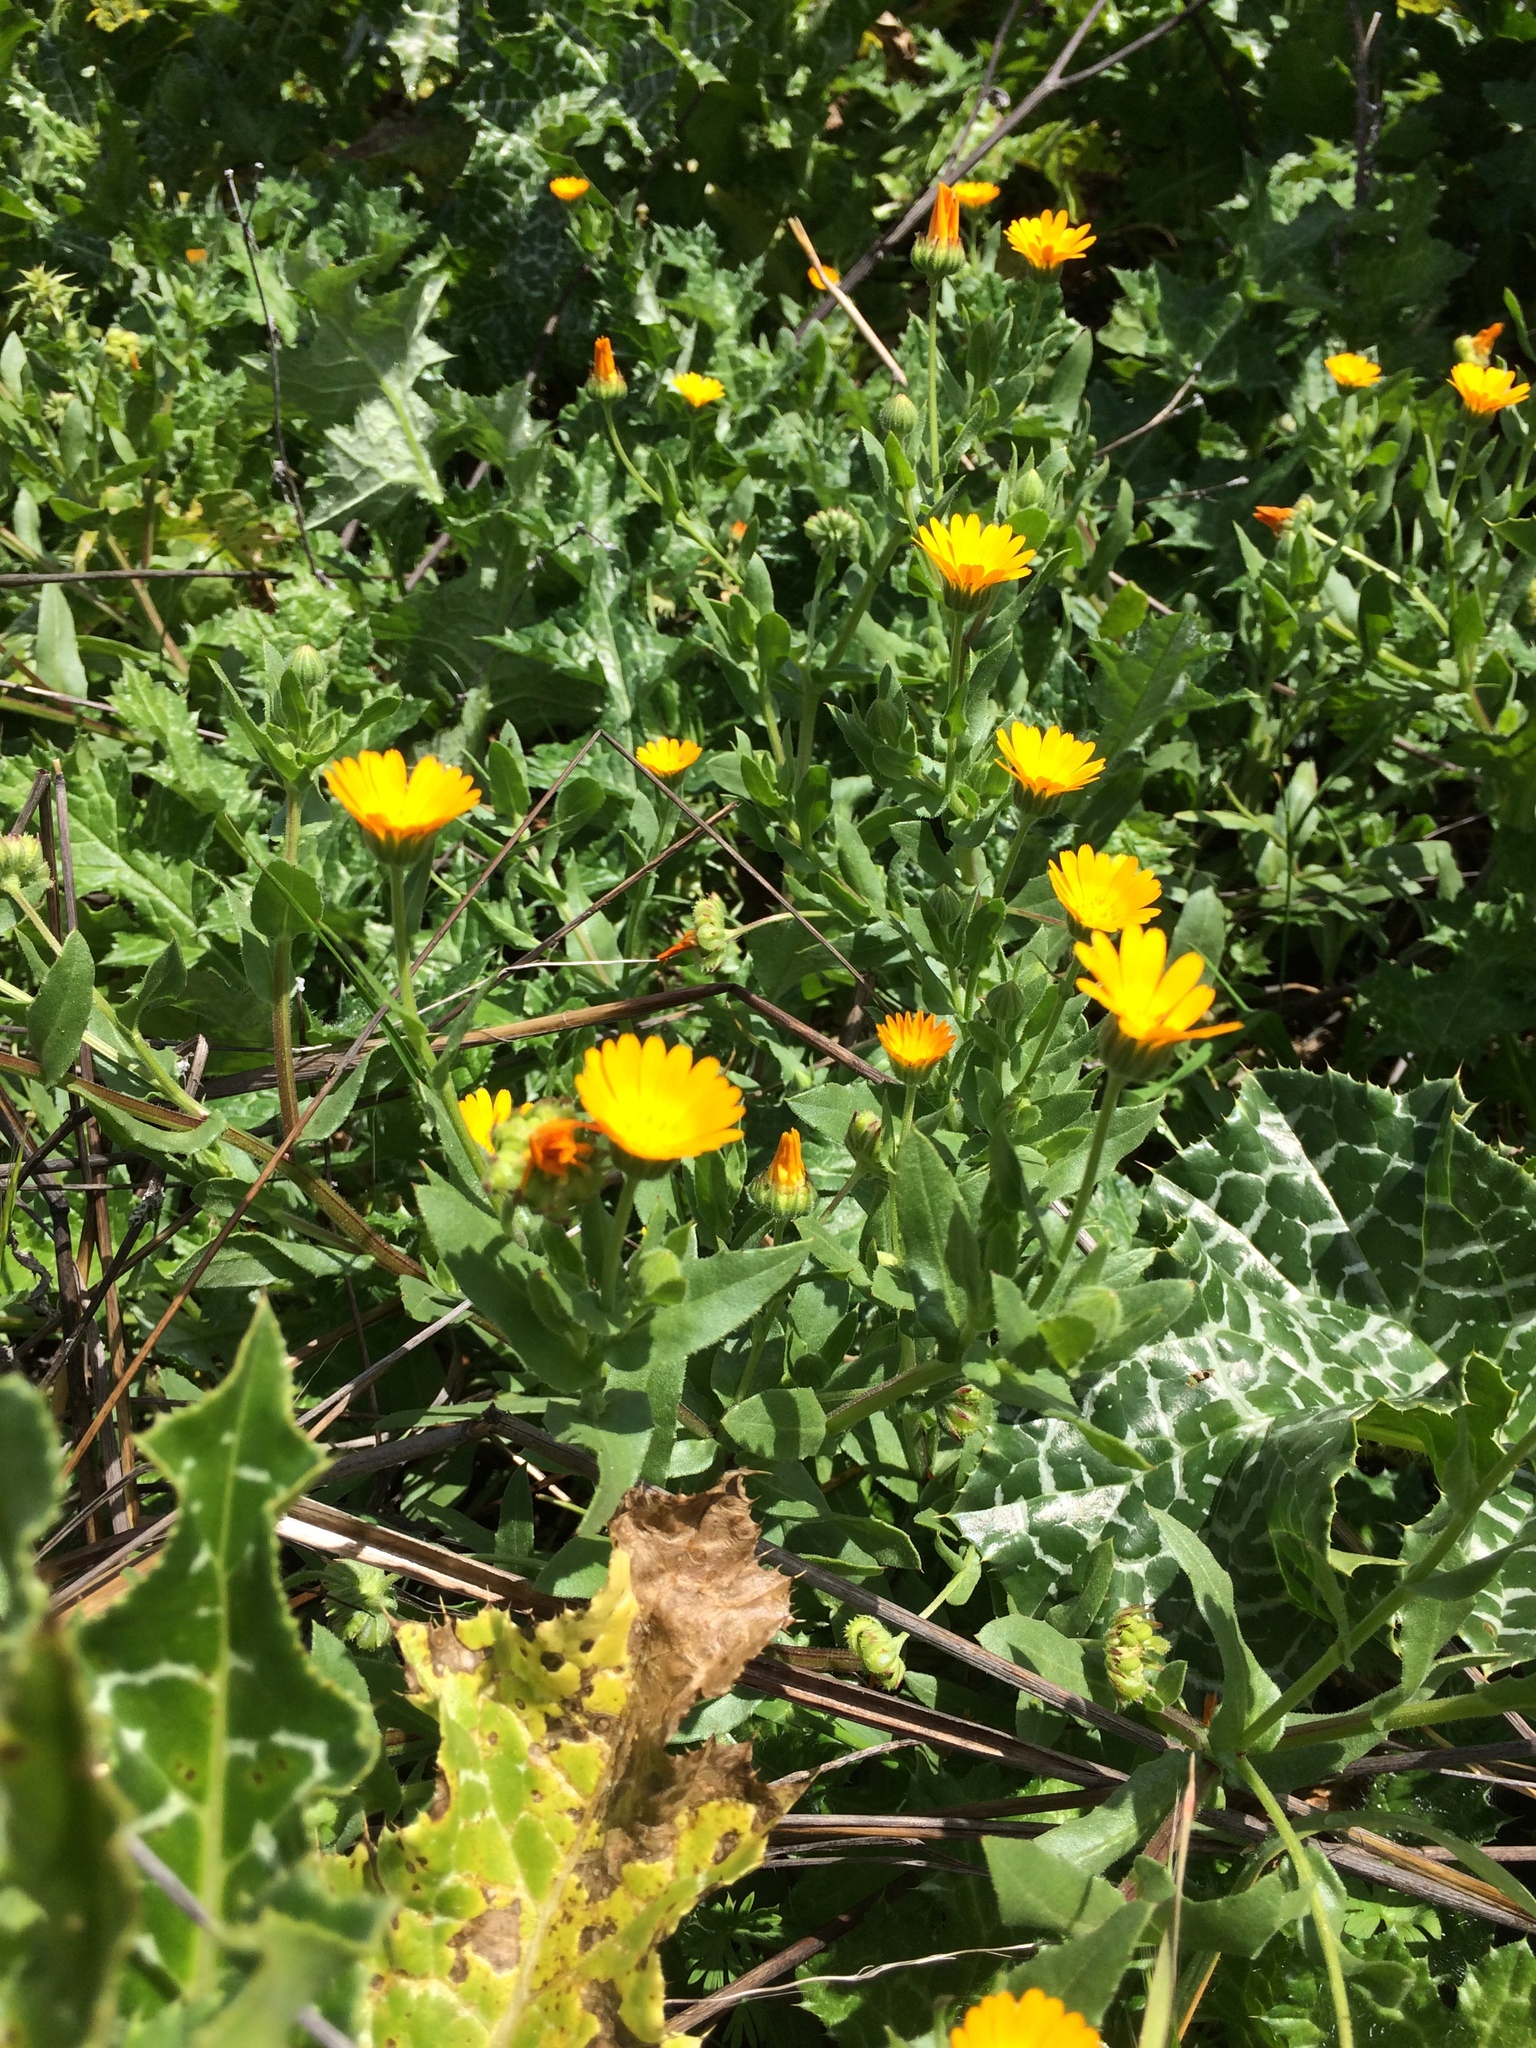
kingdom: Plantae
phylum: Tracheophyta
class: Magnoliopsida
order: Asterales
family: Asteraceae
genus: Calendula
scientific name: Calendula arvensis
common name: Field marigold
